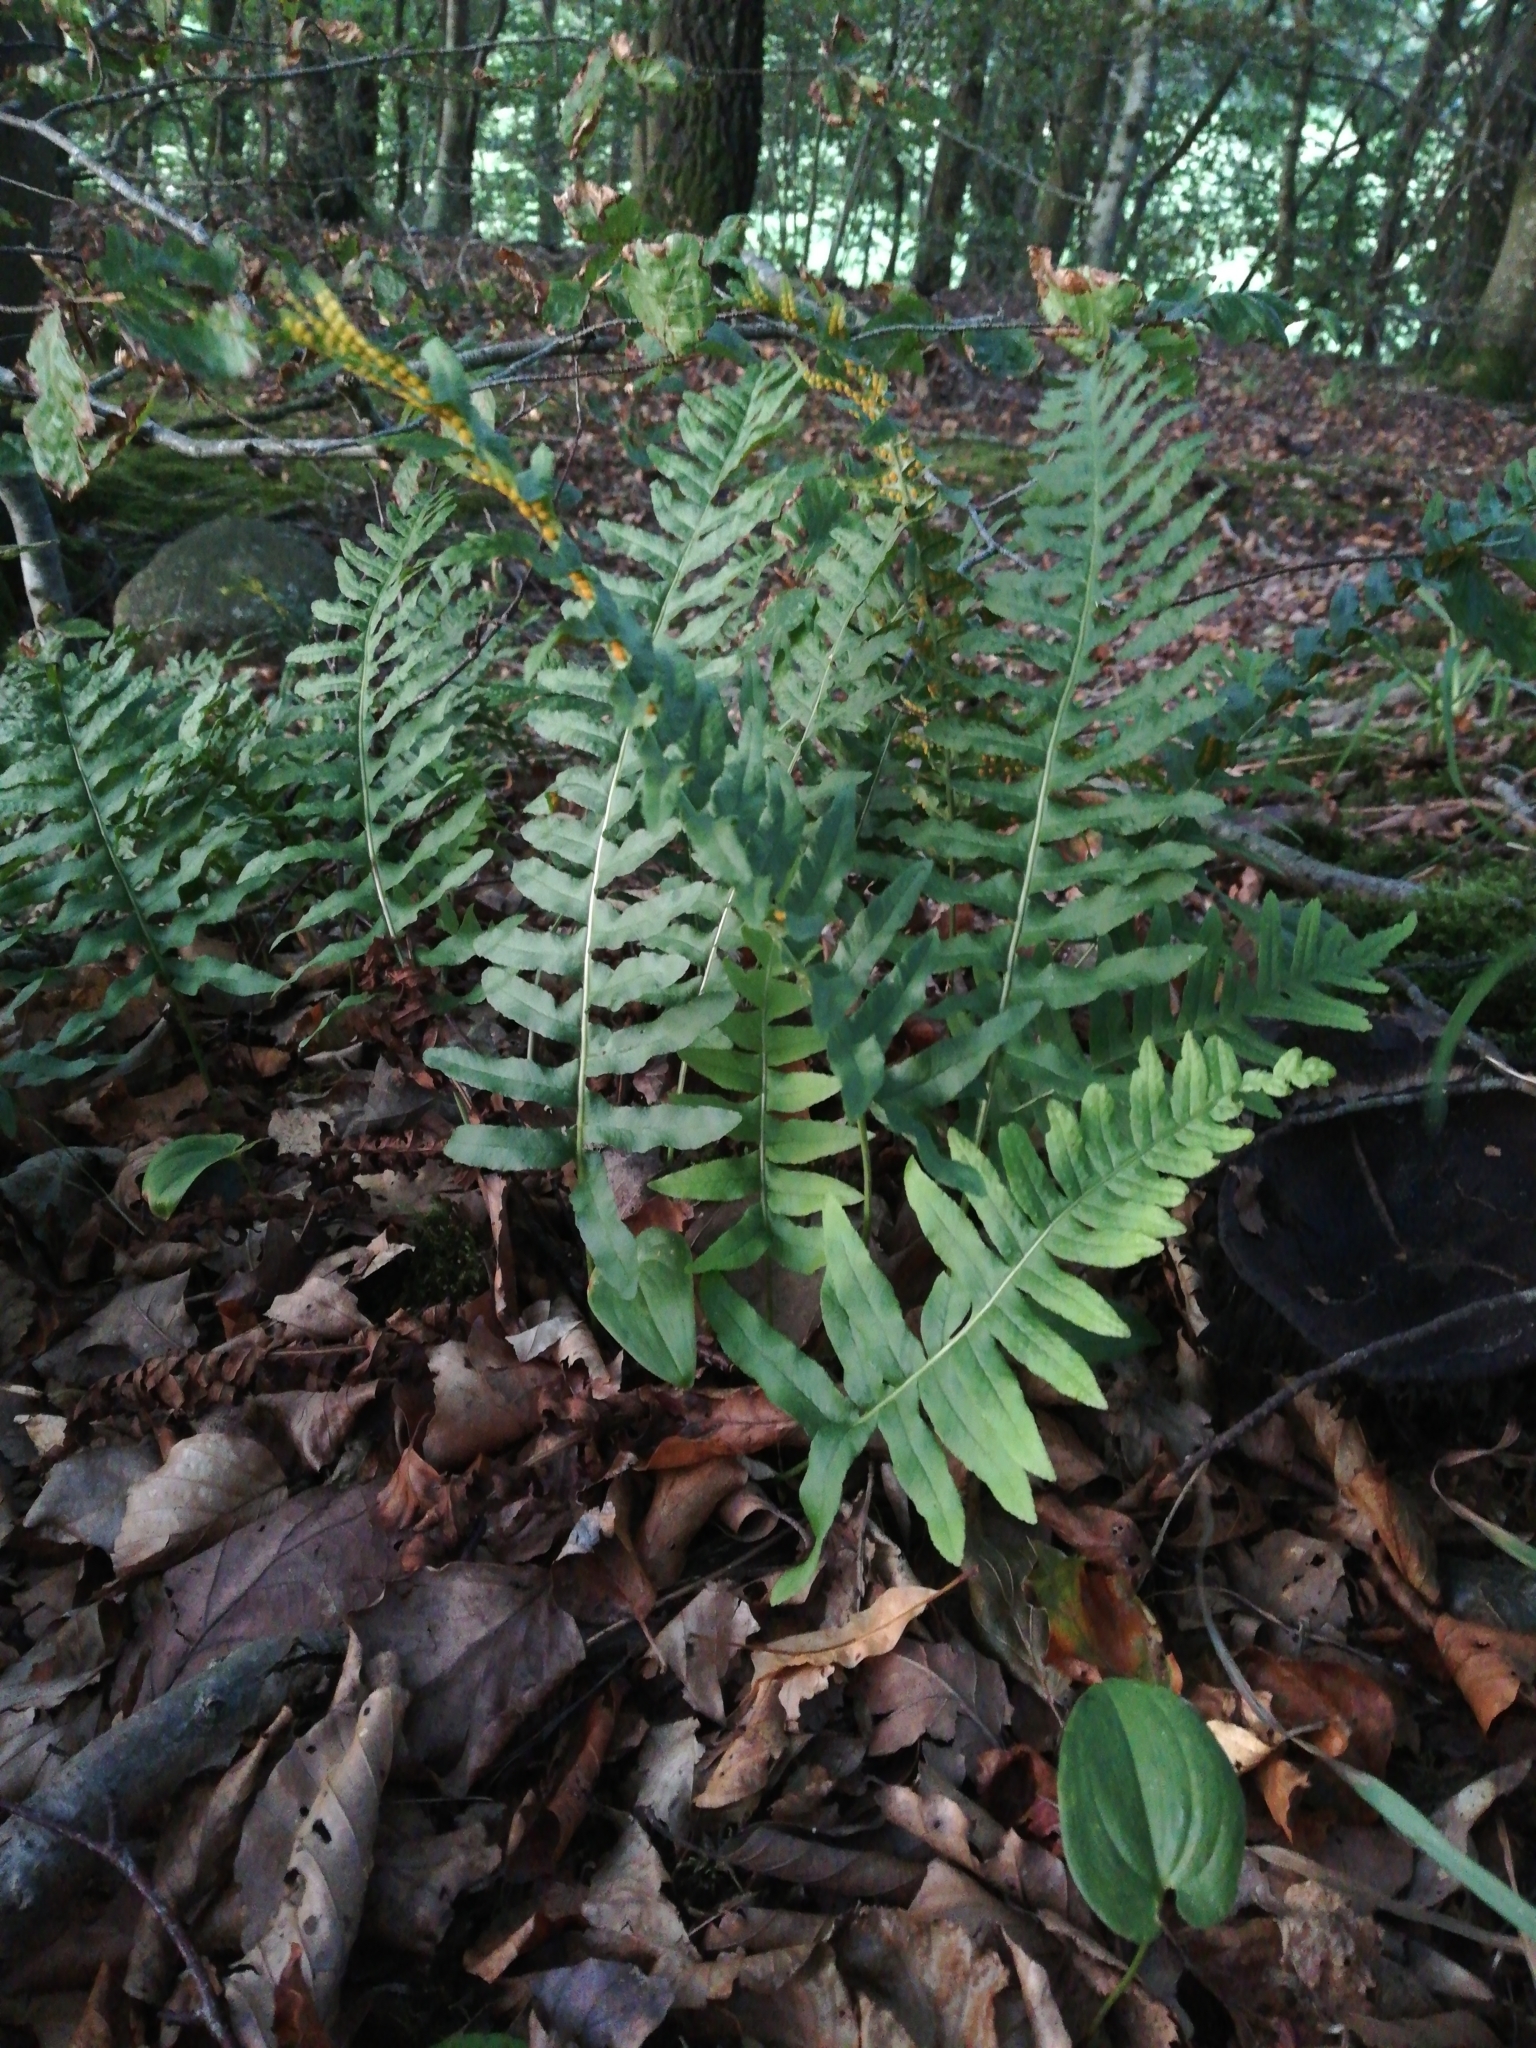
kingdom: Plantae
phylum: Tracheophyta
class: Polypodiopsida
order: Polypodiales
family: Polypodiaceae
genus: Polypodium
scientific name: Polypodium vulgare
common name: Common polypody
